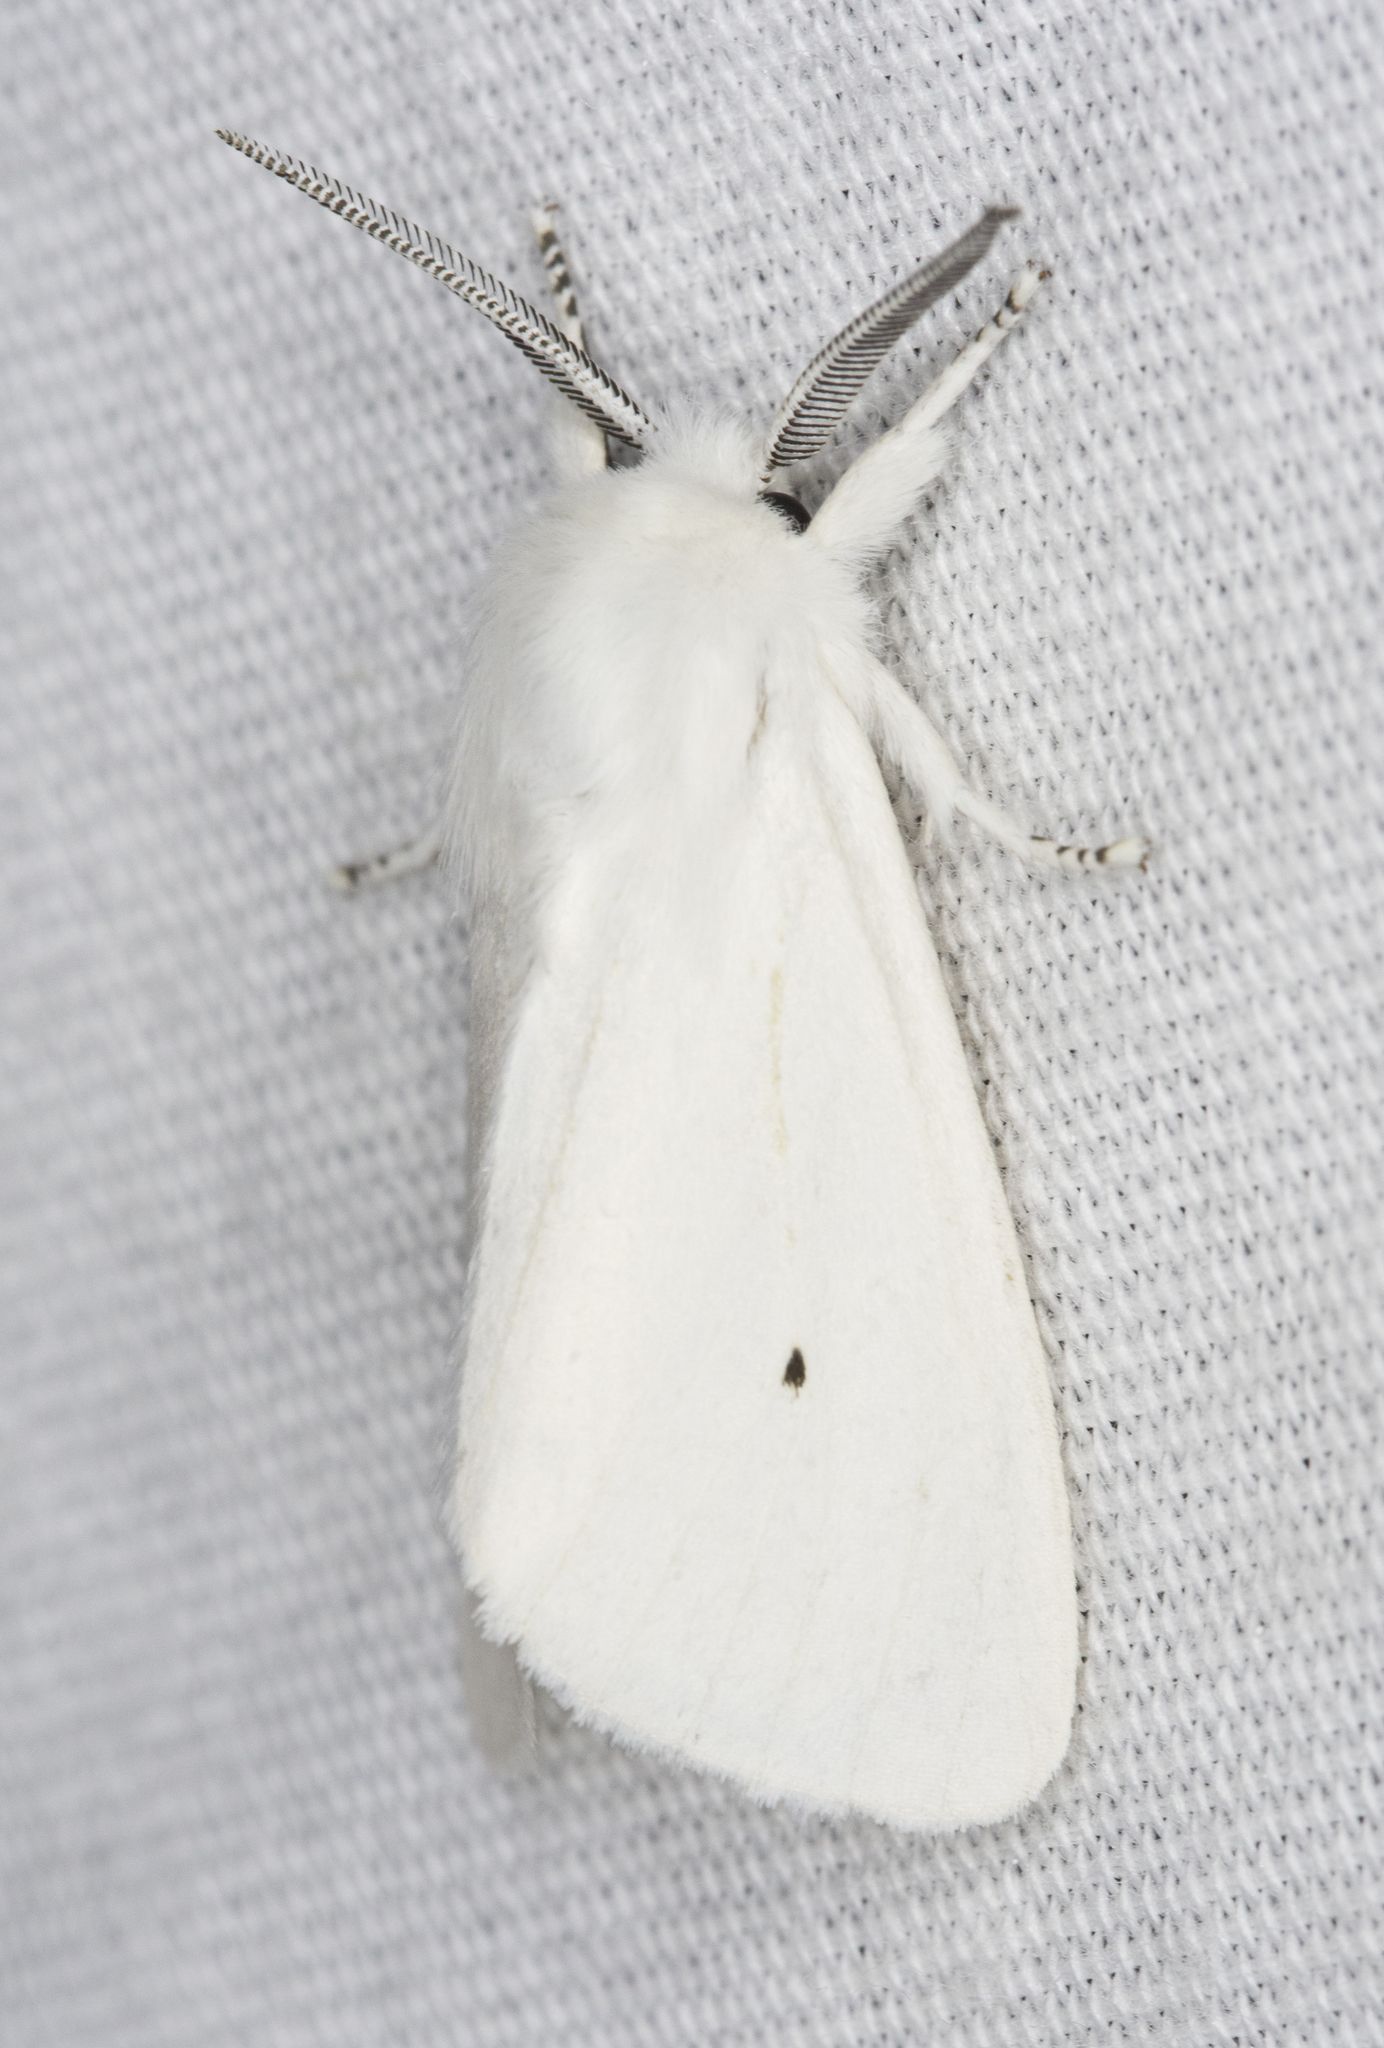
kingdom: Animalia
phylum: Arthropoda
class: Insecta
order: Lepidoptera
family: Erebidae
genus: Spilosoma
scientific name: Spilosoma virginica
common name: Virginia tiger moth
